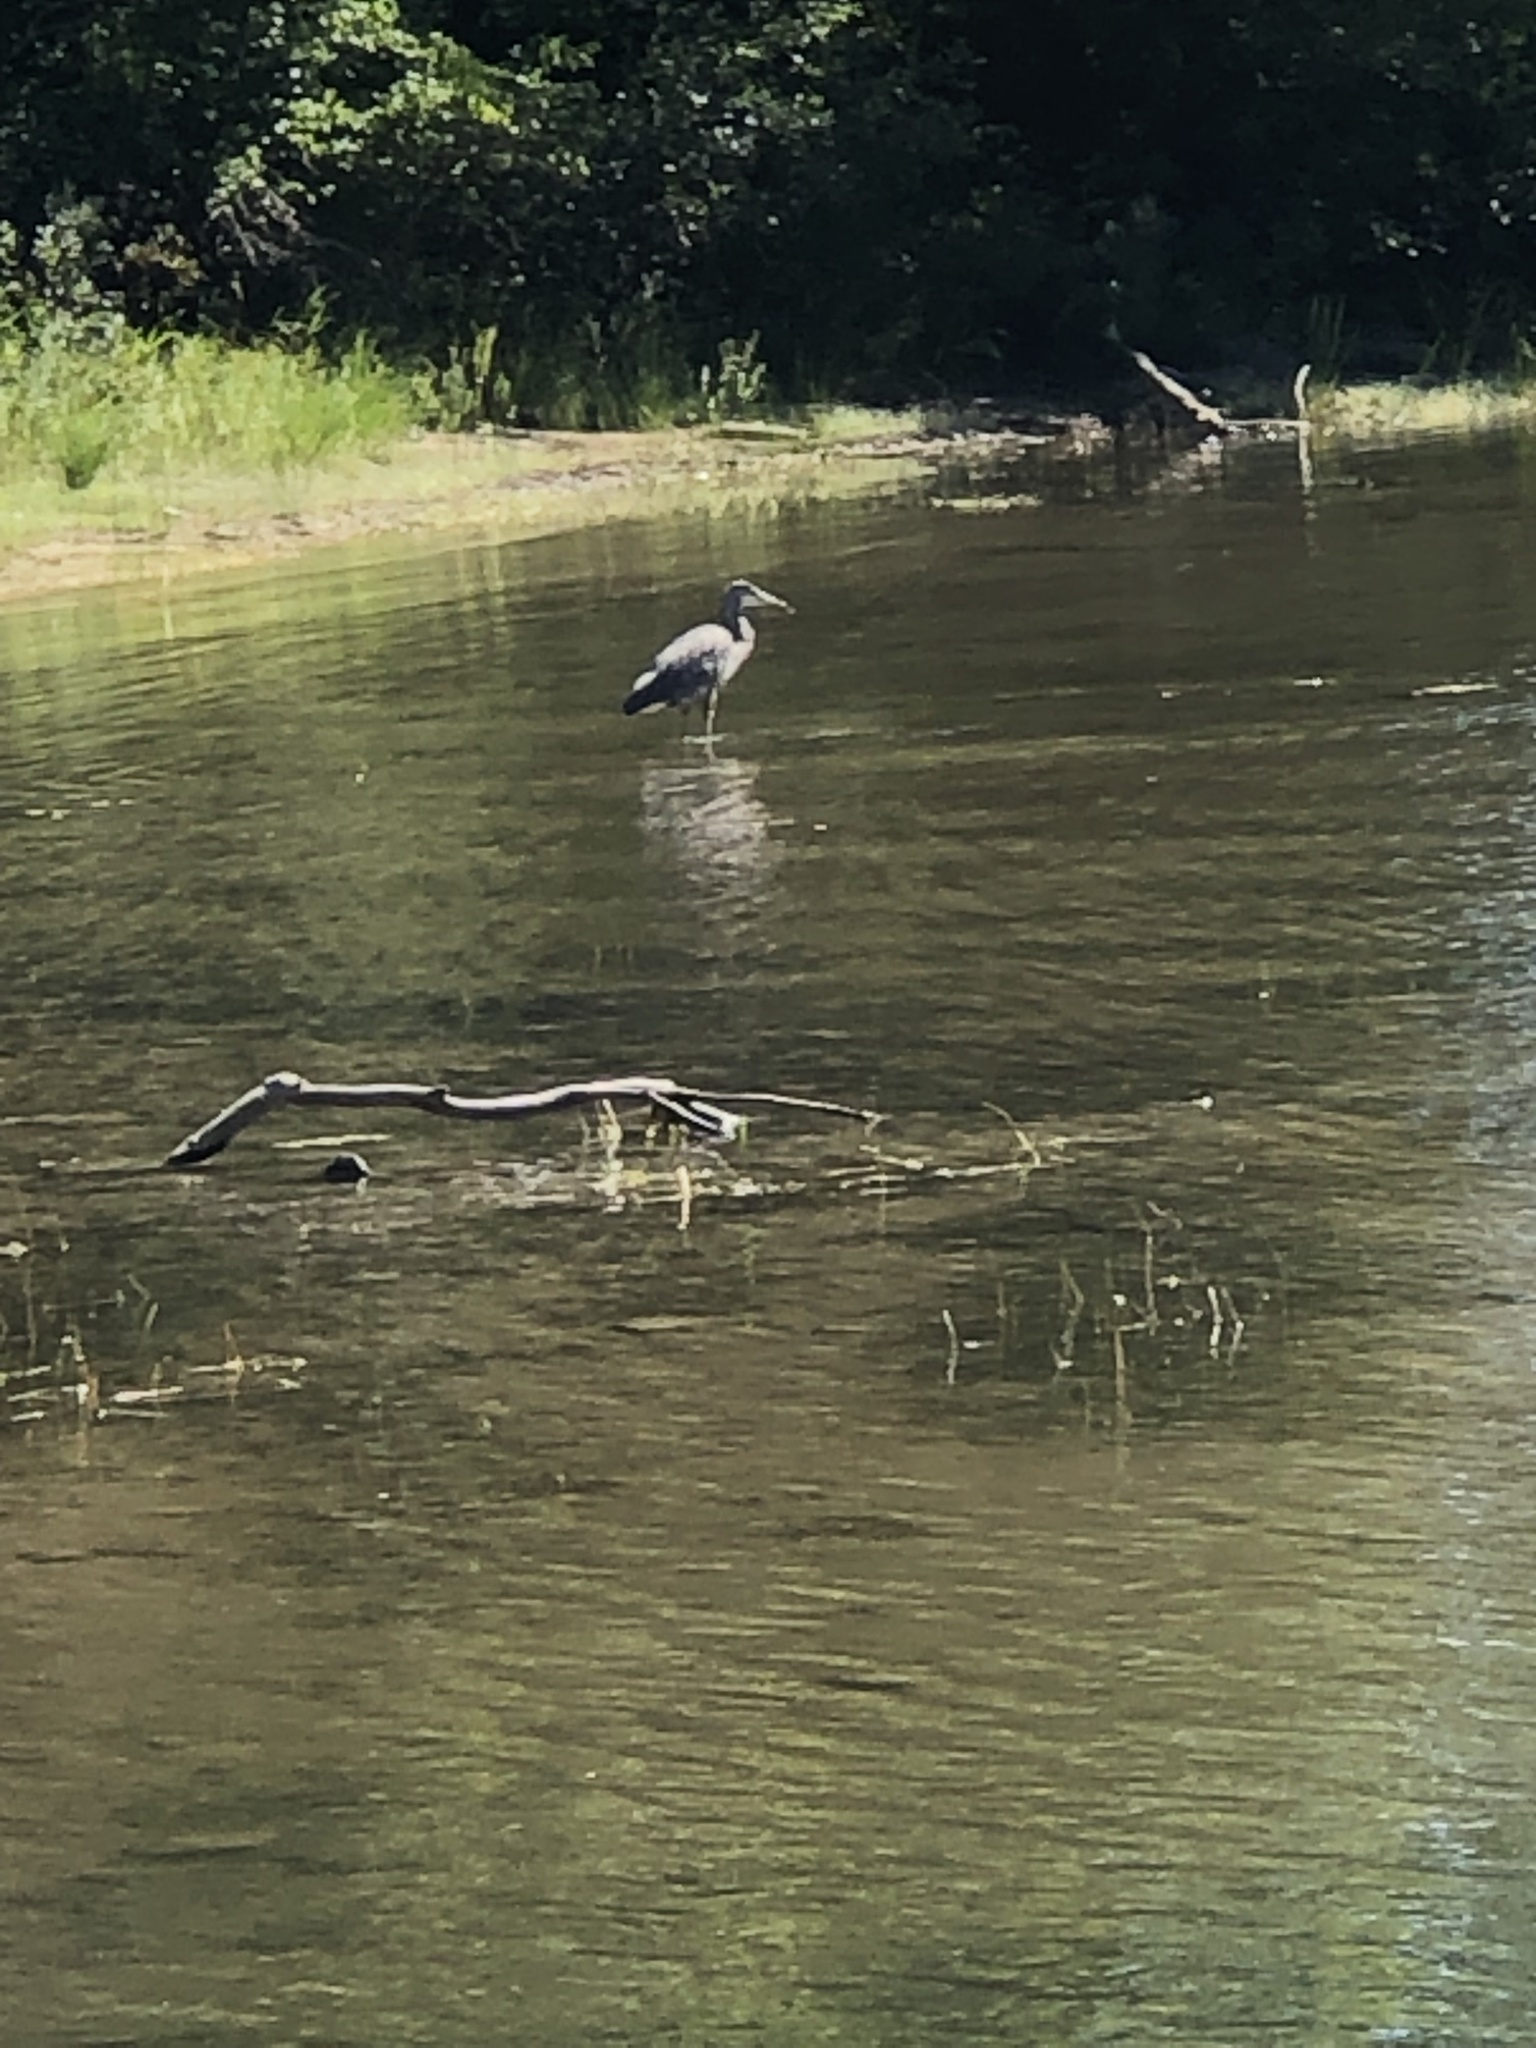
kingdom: Animalia
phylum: Chordata
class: Aves
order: Pelecaniformes
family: Ardeidae
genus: Ardea
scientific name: Ardea herodias
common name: Great blue heron
